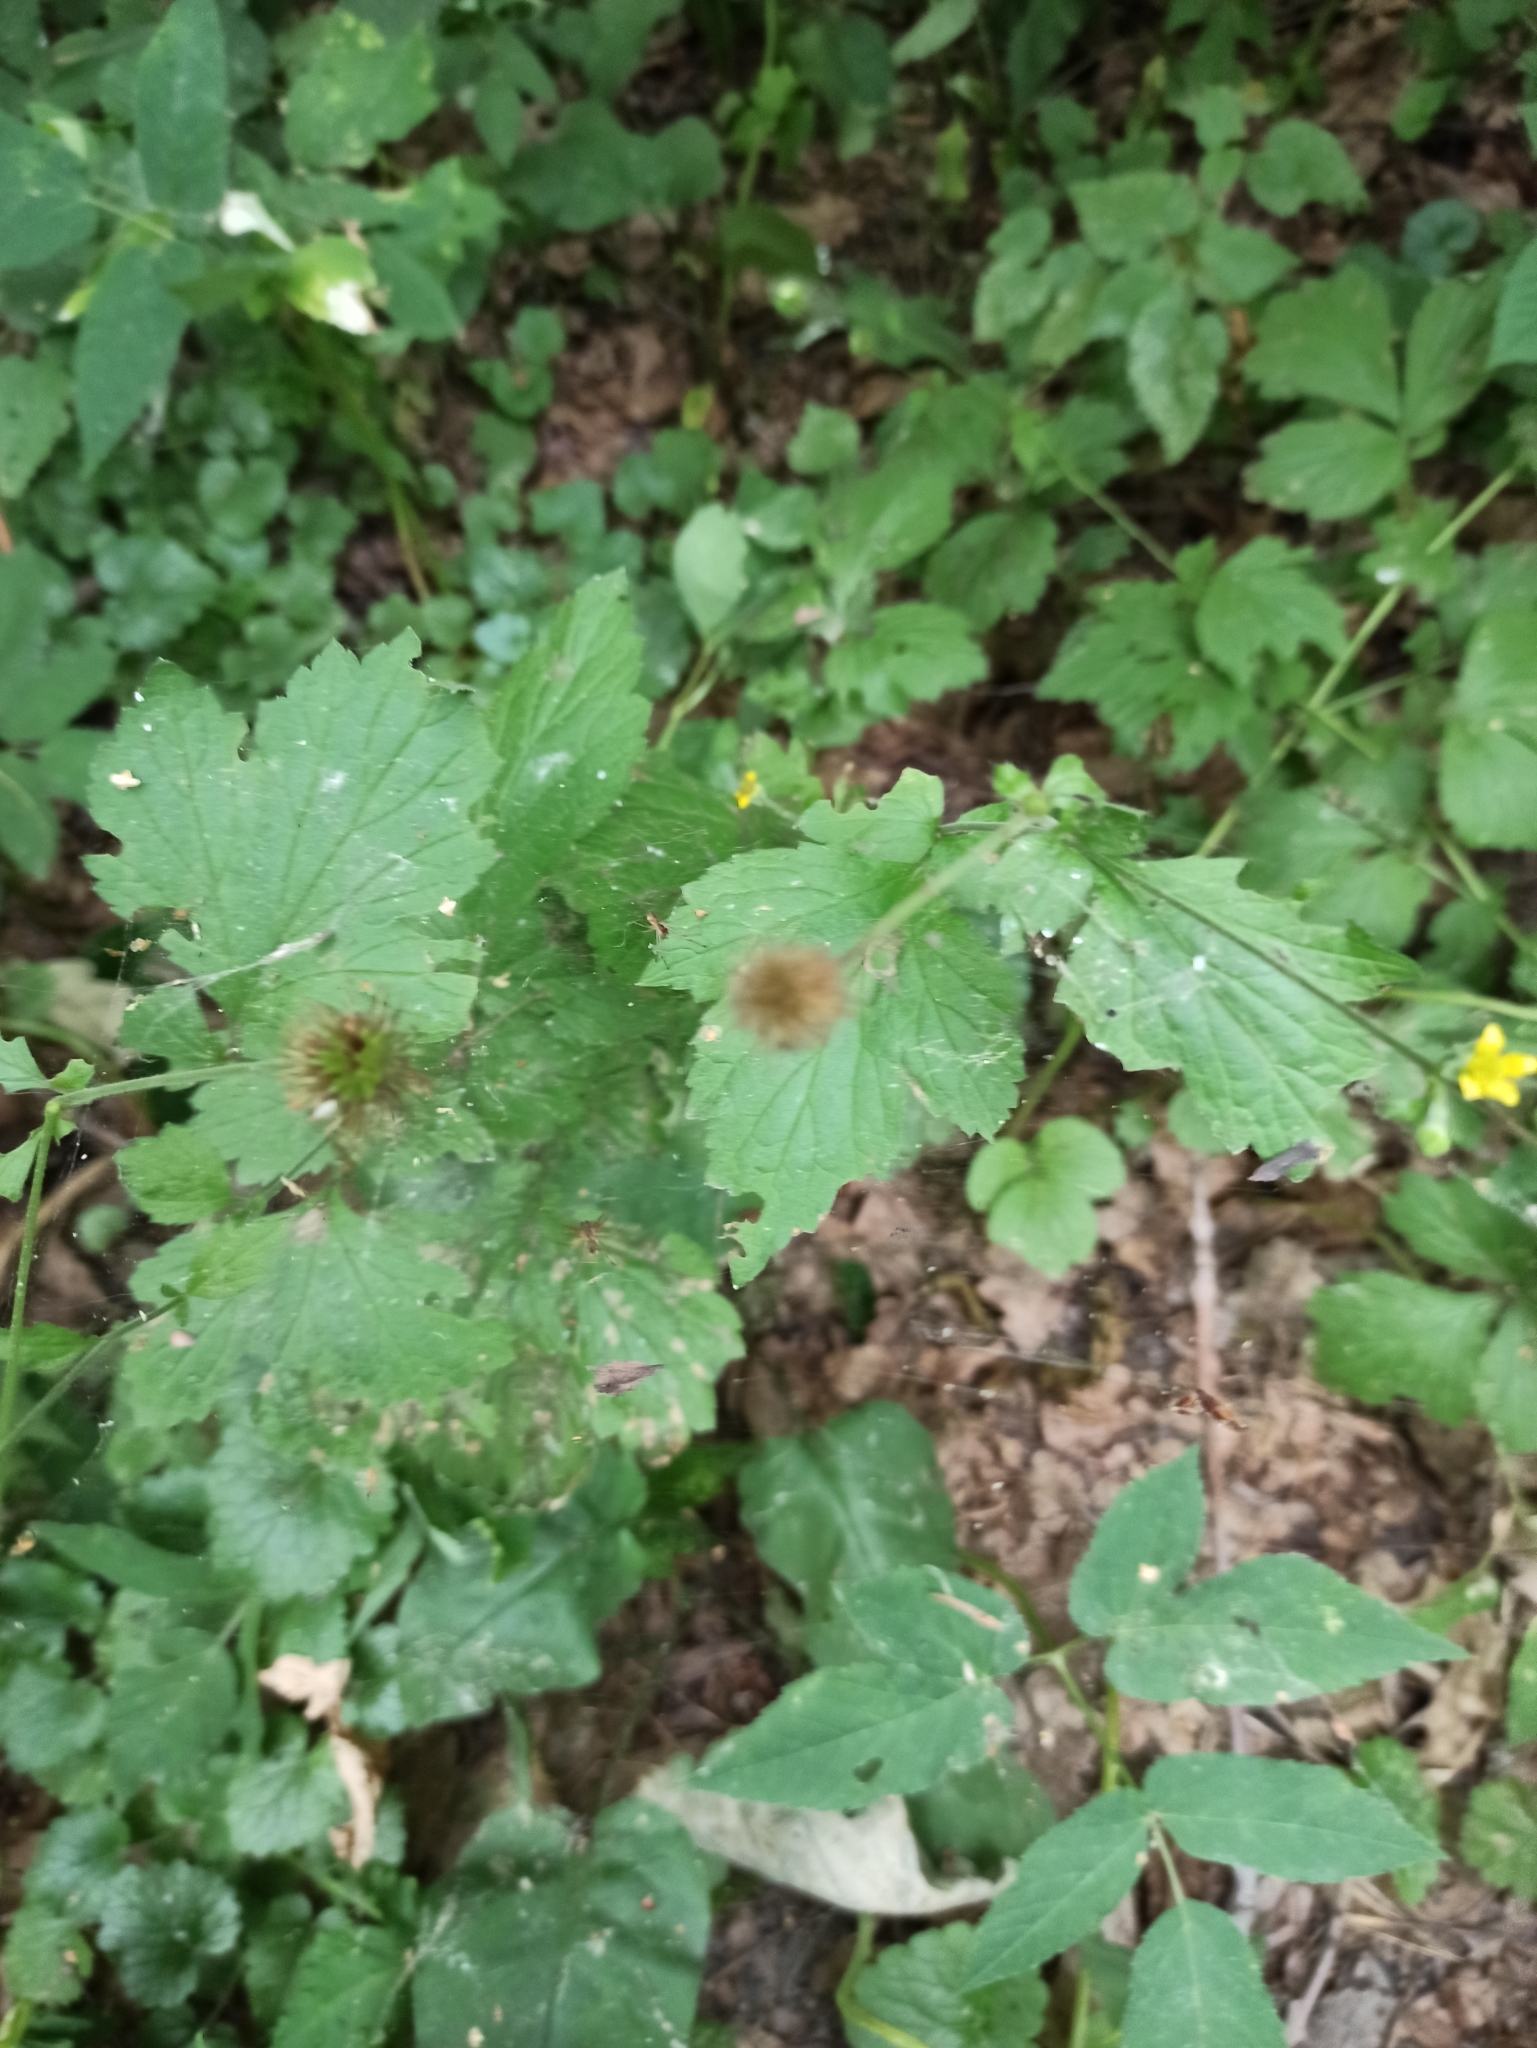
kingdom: Plantae
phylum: Tracheophyta
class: Magnoliopsida
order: Rosales
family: Rosaceae
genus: Geum
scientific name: Geum urbanum
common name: Wood avens
